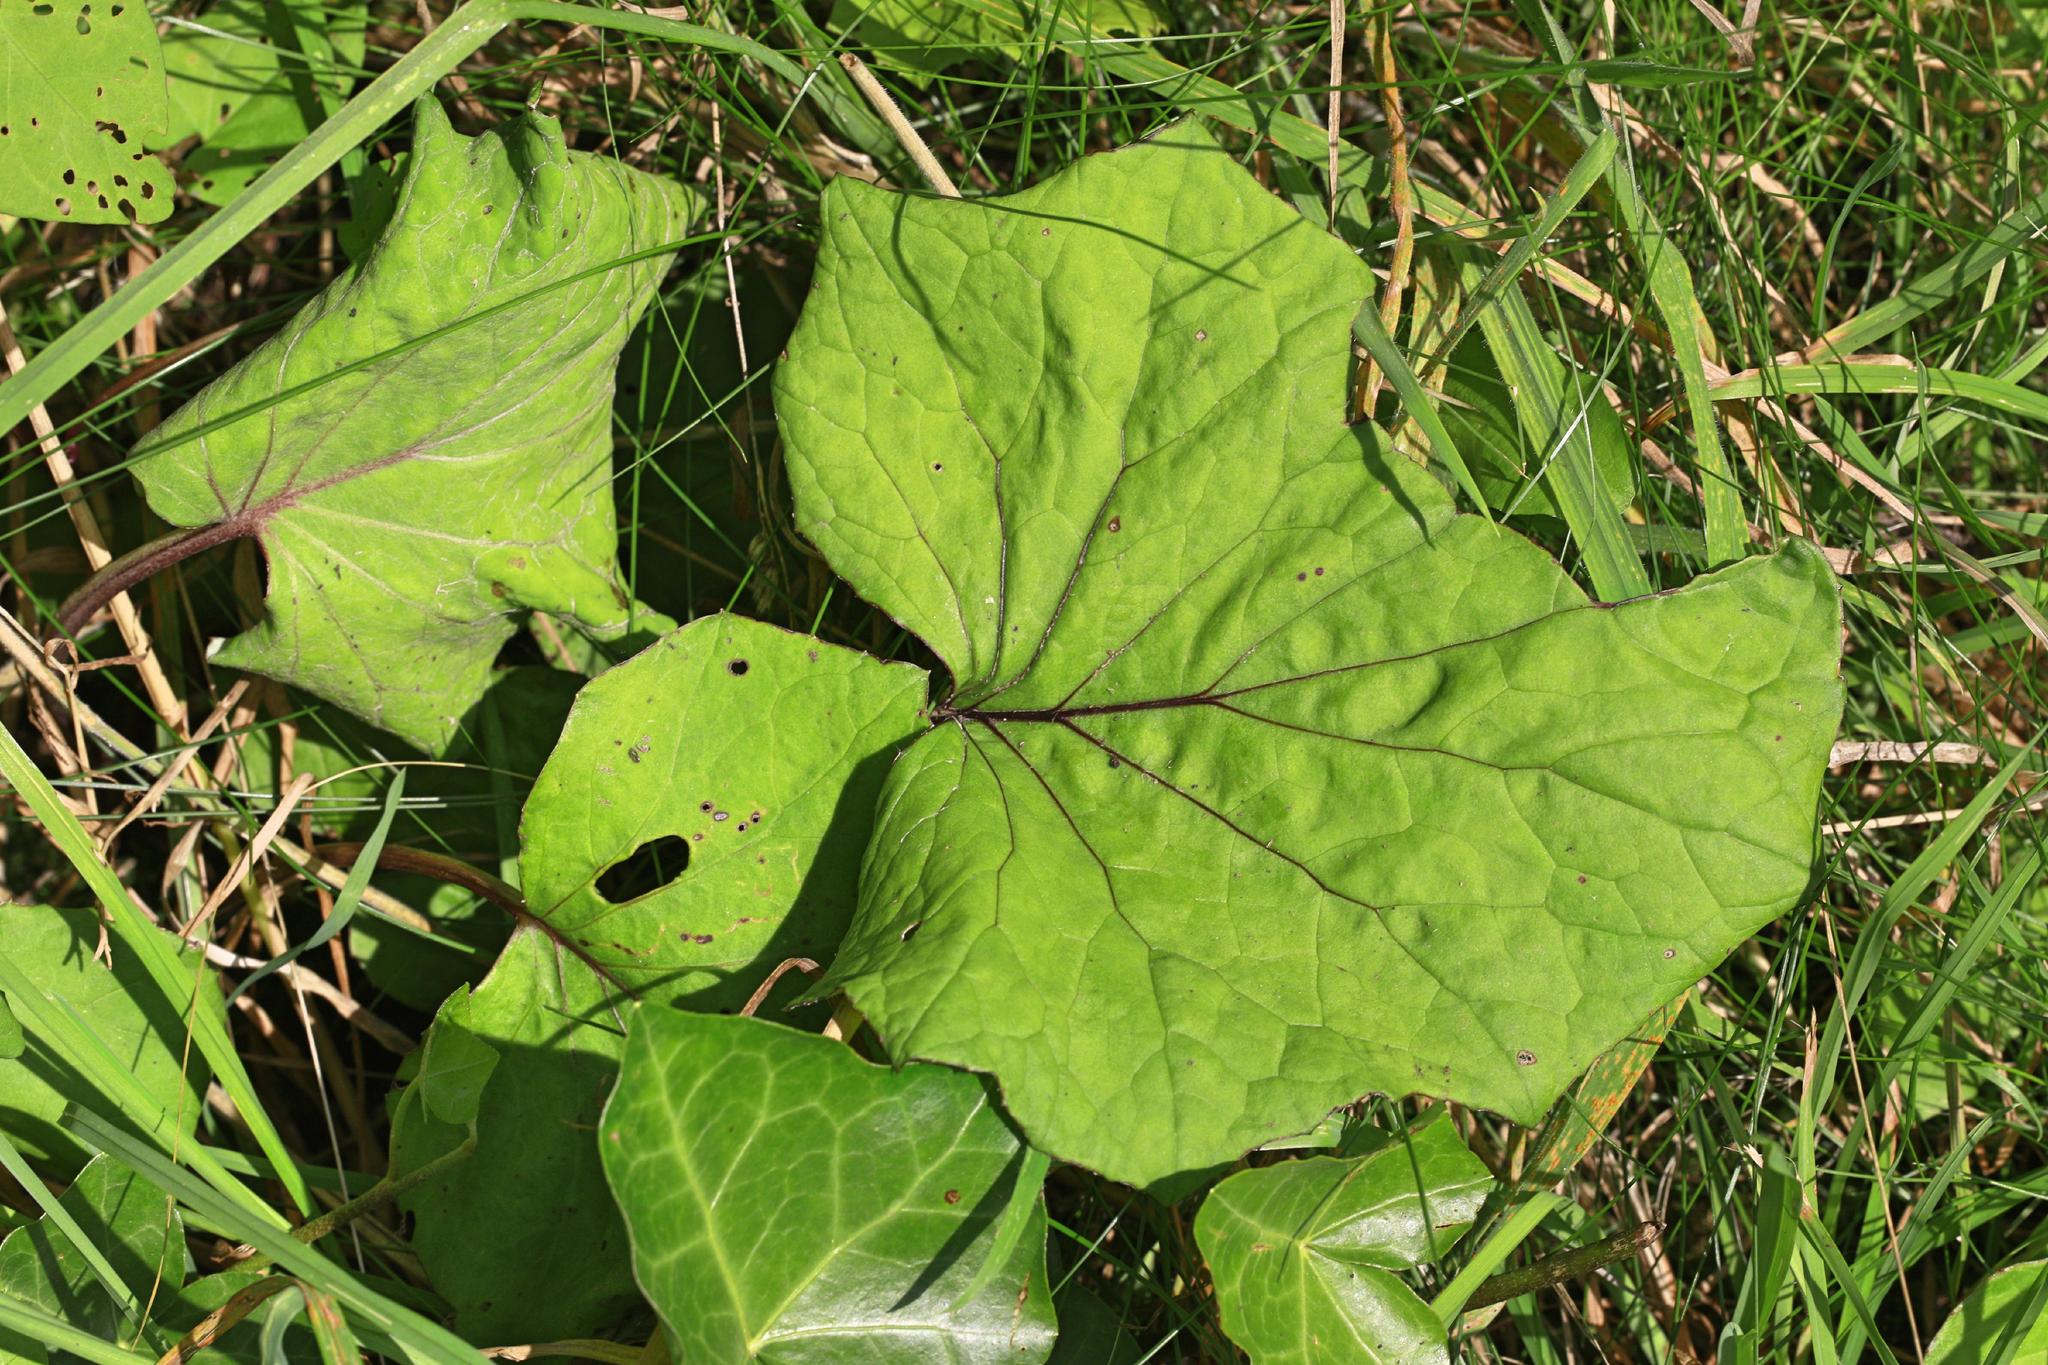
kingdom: Plantae
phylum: Tracheophyta
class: Magnoliopsida
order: Asterales
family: Asteraceae
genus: Tussilago
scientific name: Tussilago farfara
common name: Coltsfoot
